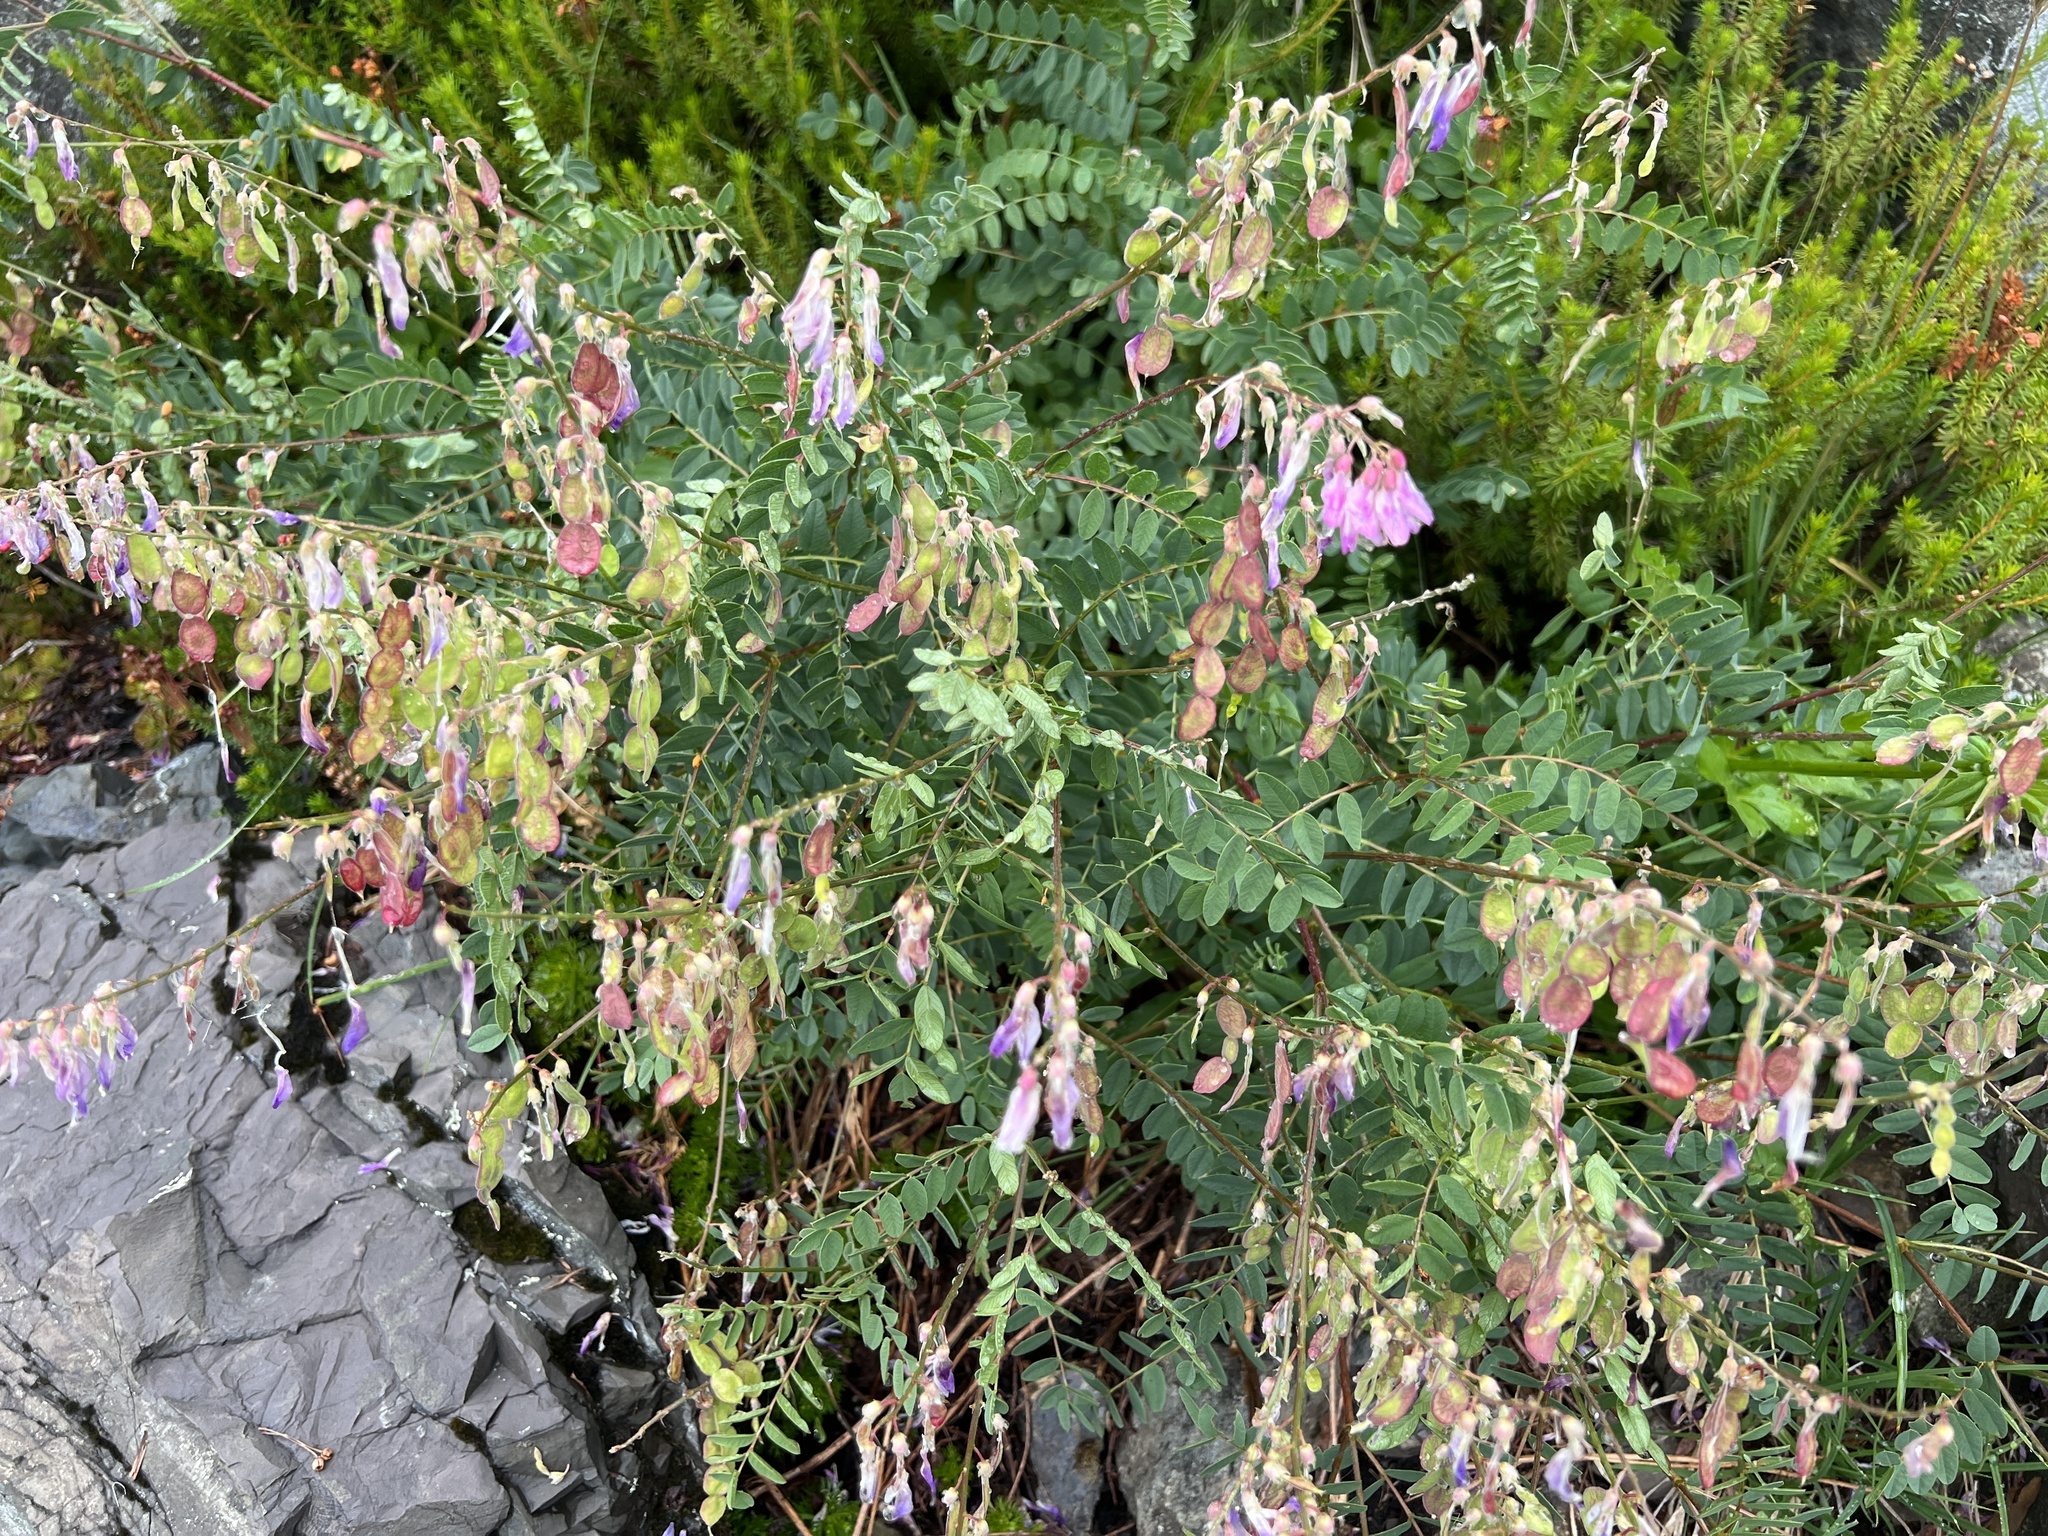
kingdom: Plantae
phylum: Tracheophyta
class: Magnoliopsida
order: Fabales
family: Fabaceae
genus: Hedysarum
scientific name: Hedysarum occidentale
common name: Western hedysarum
